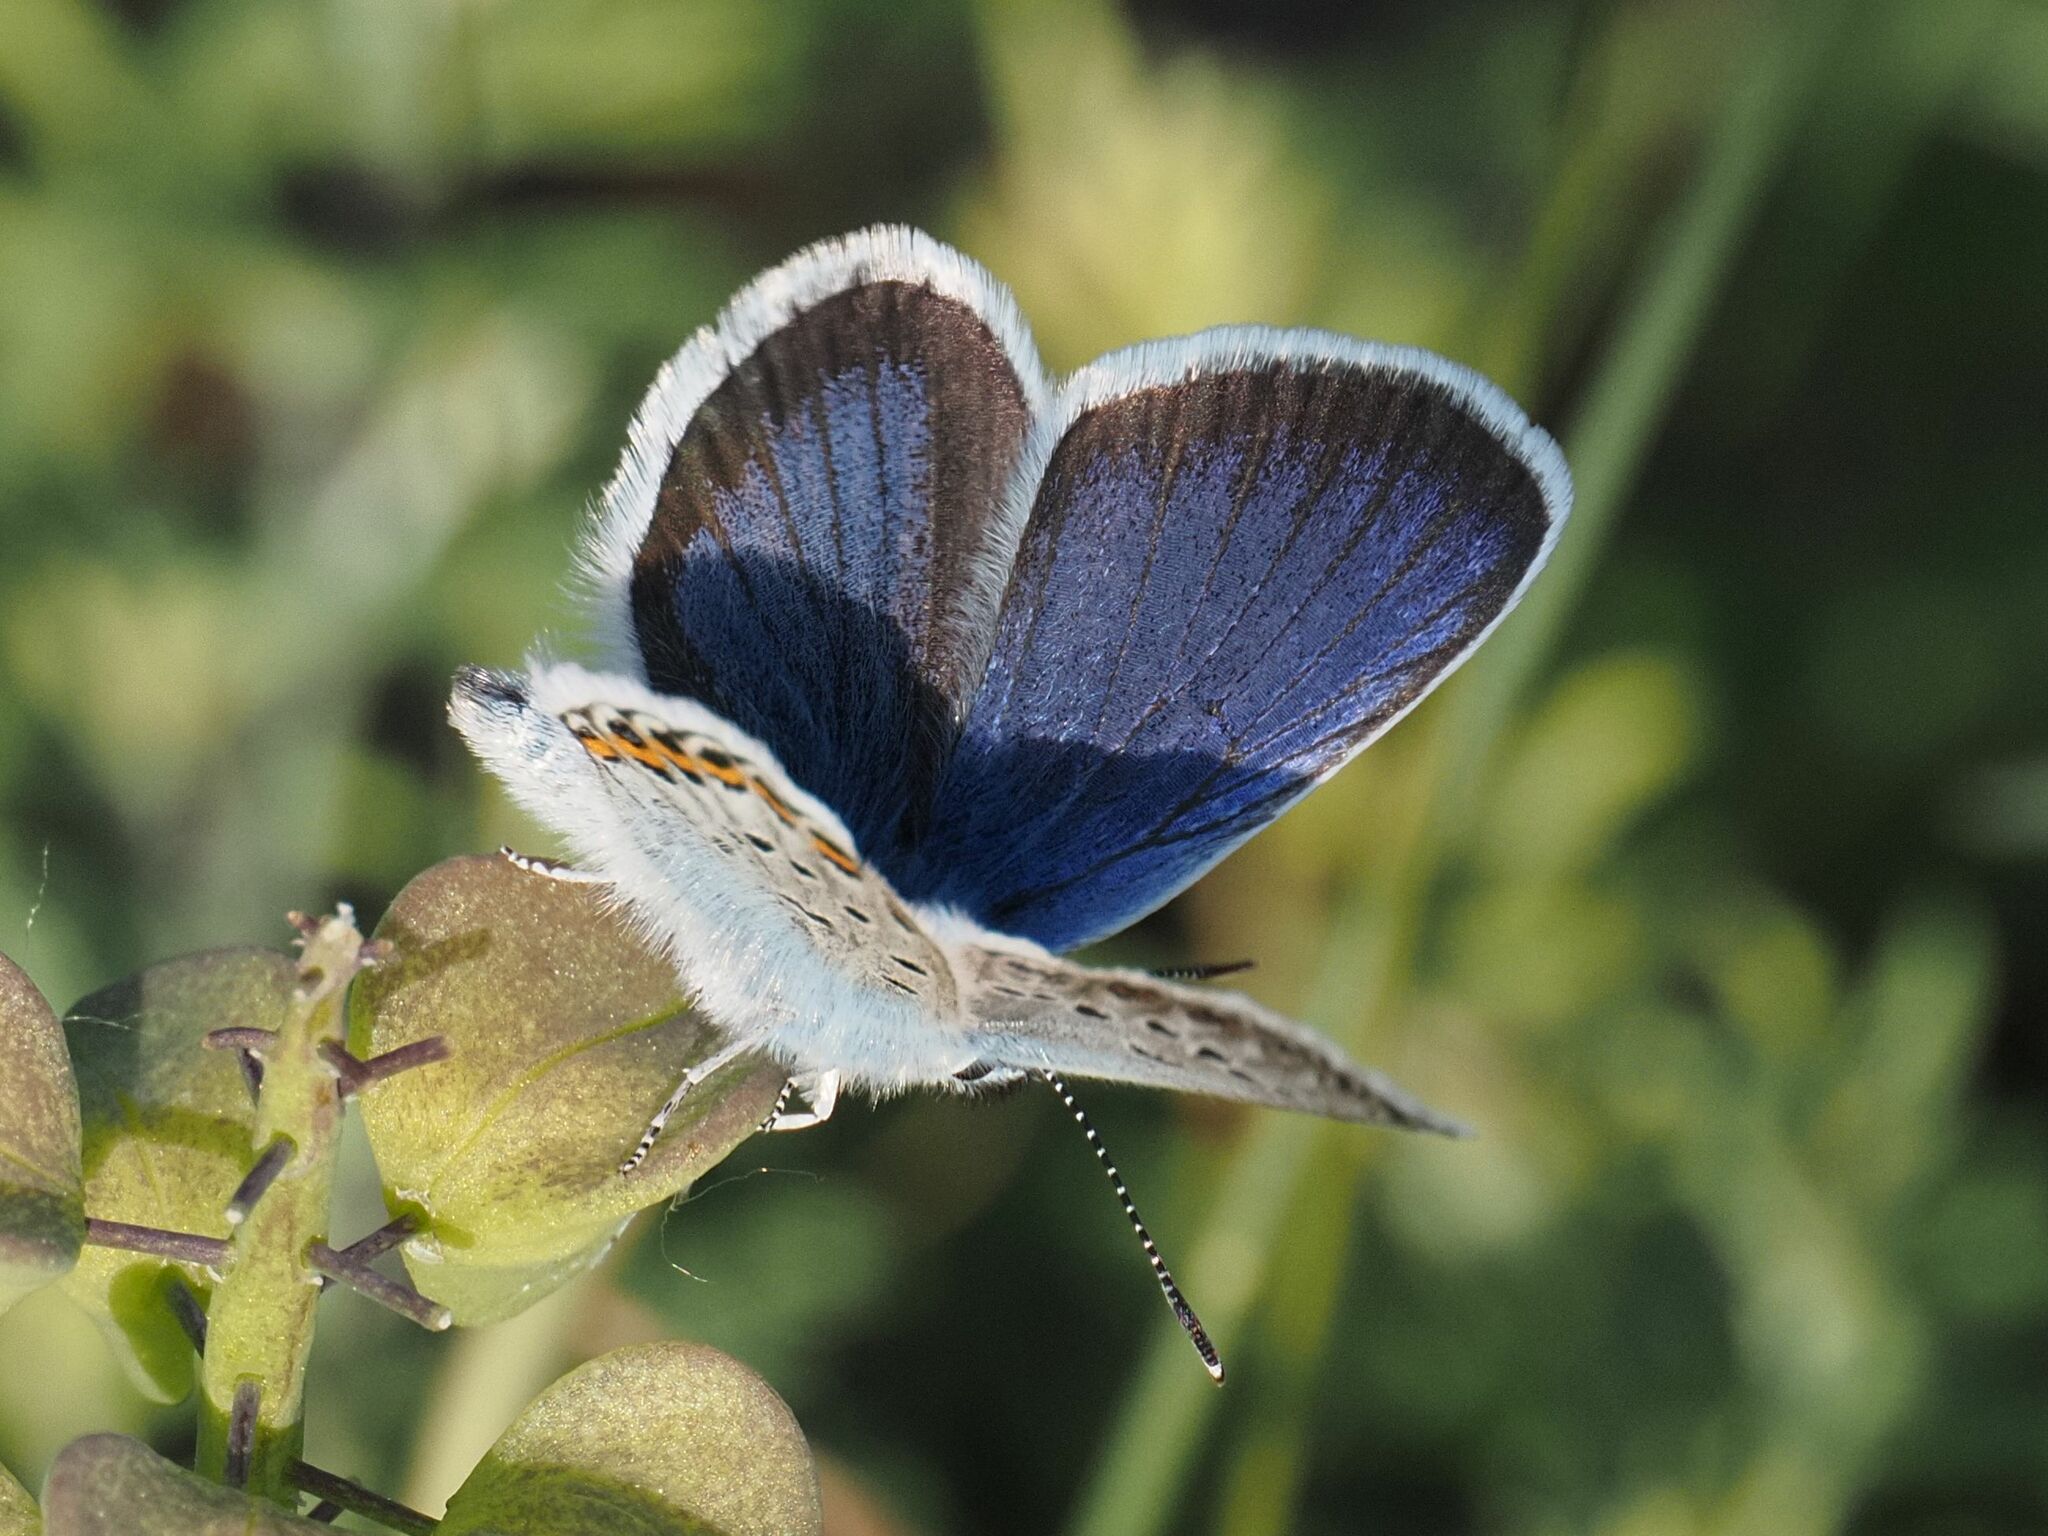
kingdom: Animalia
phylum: Arthropoda
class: Insecta
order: Lepidoptera
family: Lycaenidae
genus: Plebejus
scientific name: Plebejus argus
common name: Silver-studded blue
